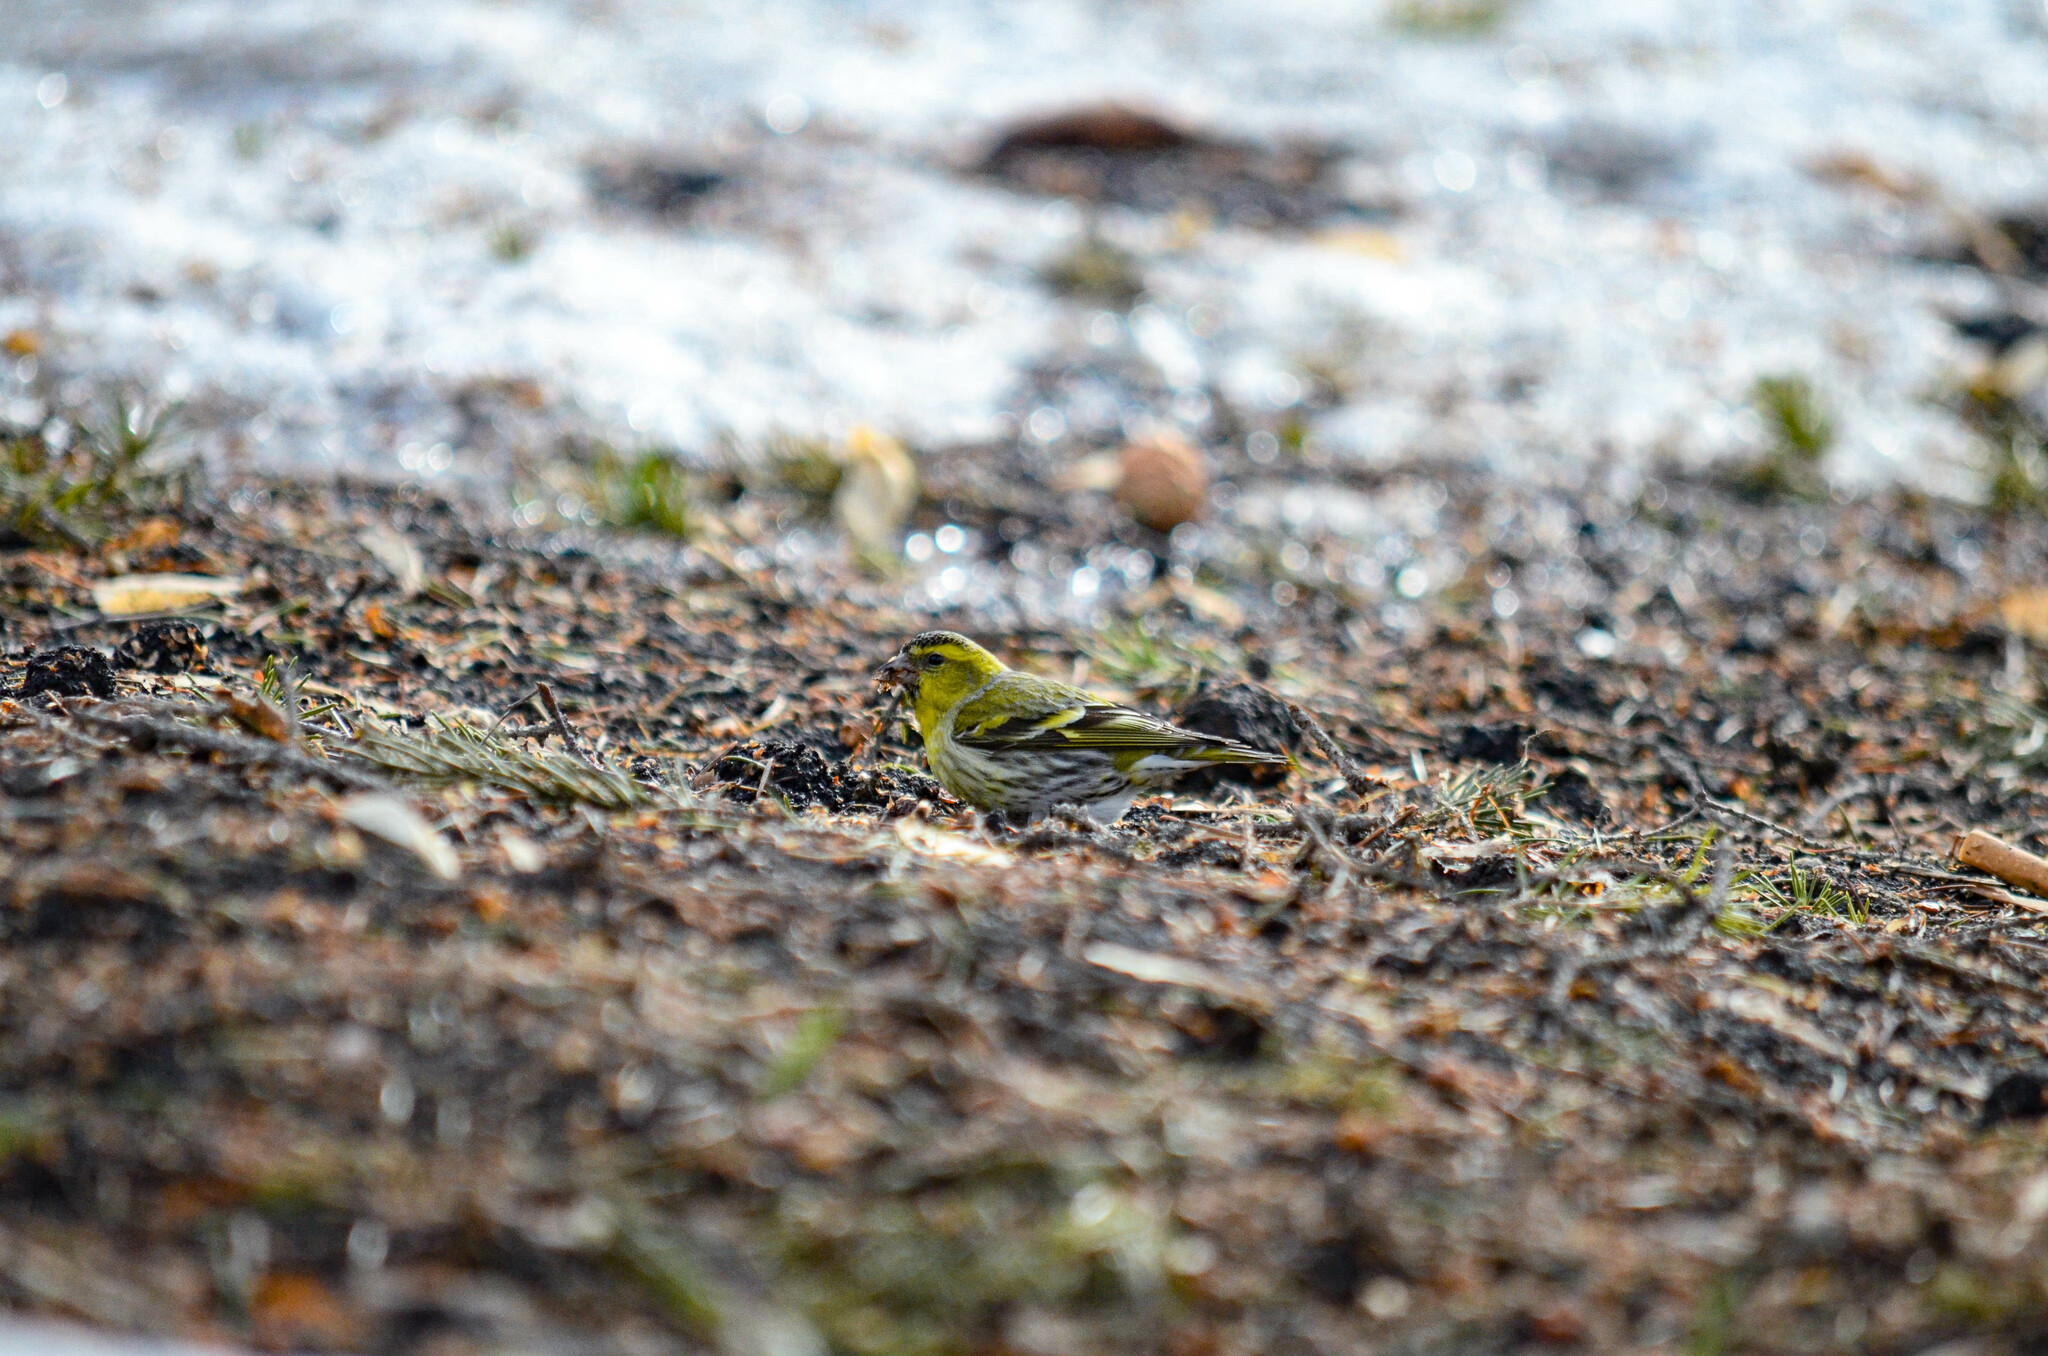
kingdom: Animalia
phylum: Chordata
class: Aves
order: Passeriformes
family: Fringillidae
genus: Spinus
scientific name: Spinus spinus
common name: Eurasian siskin
